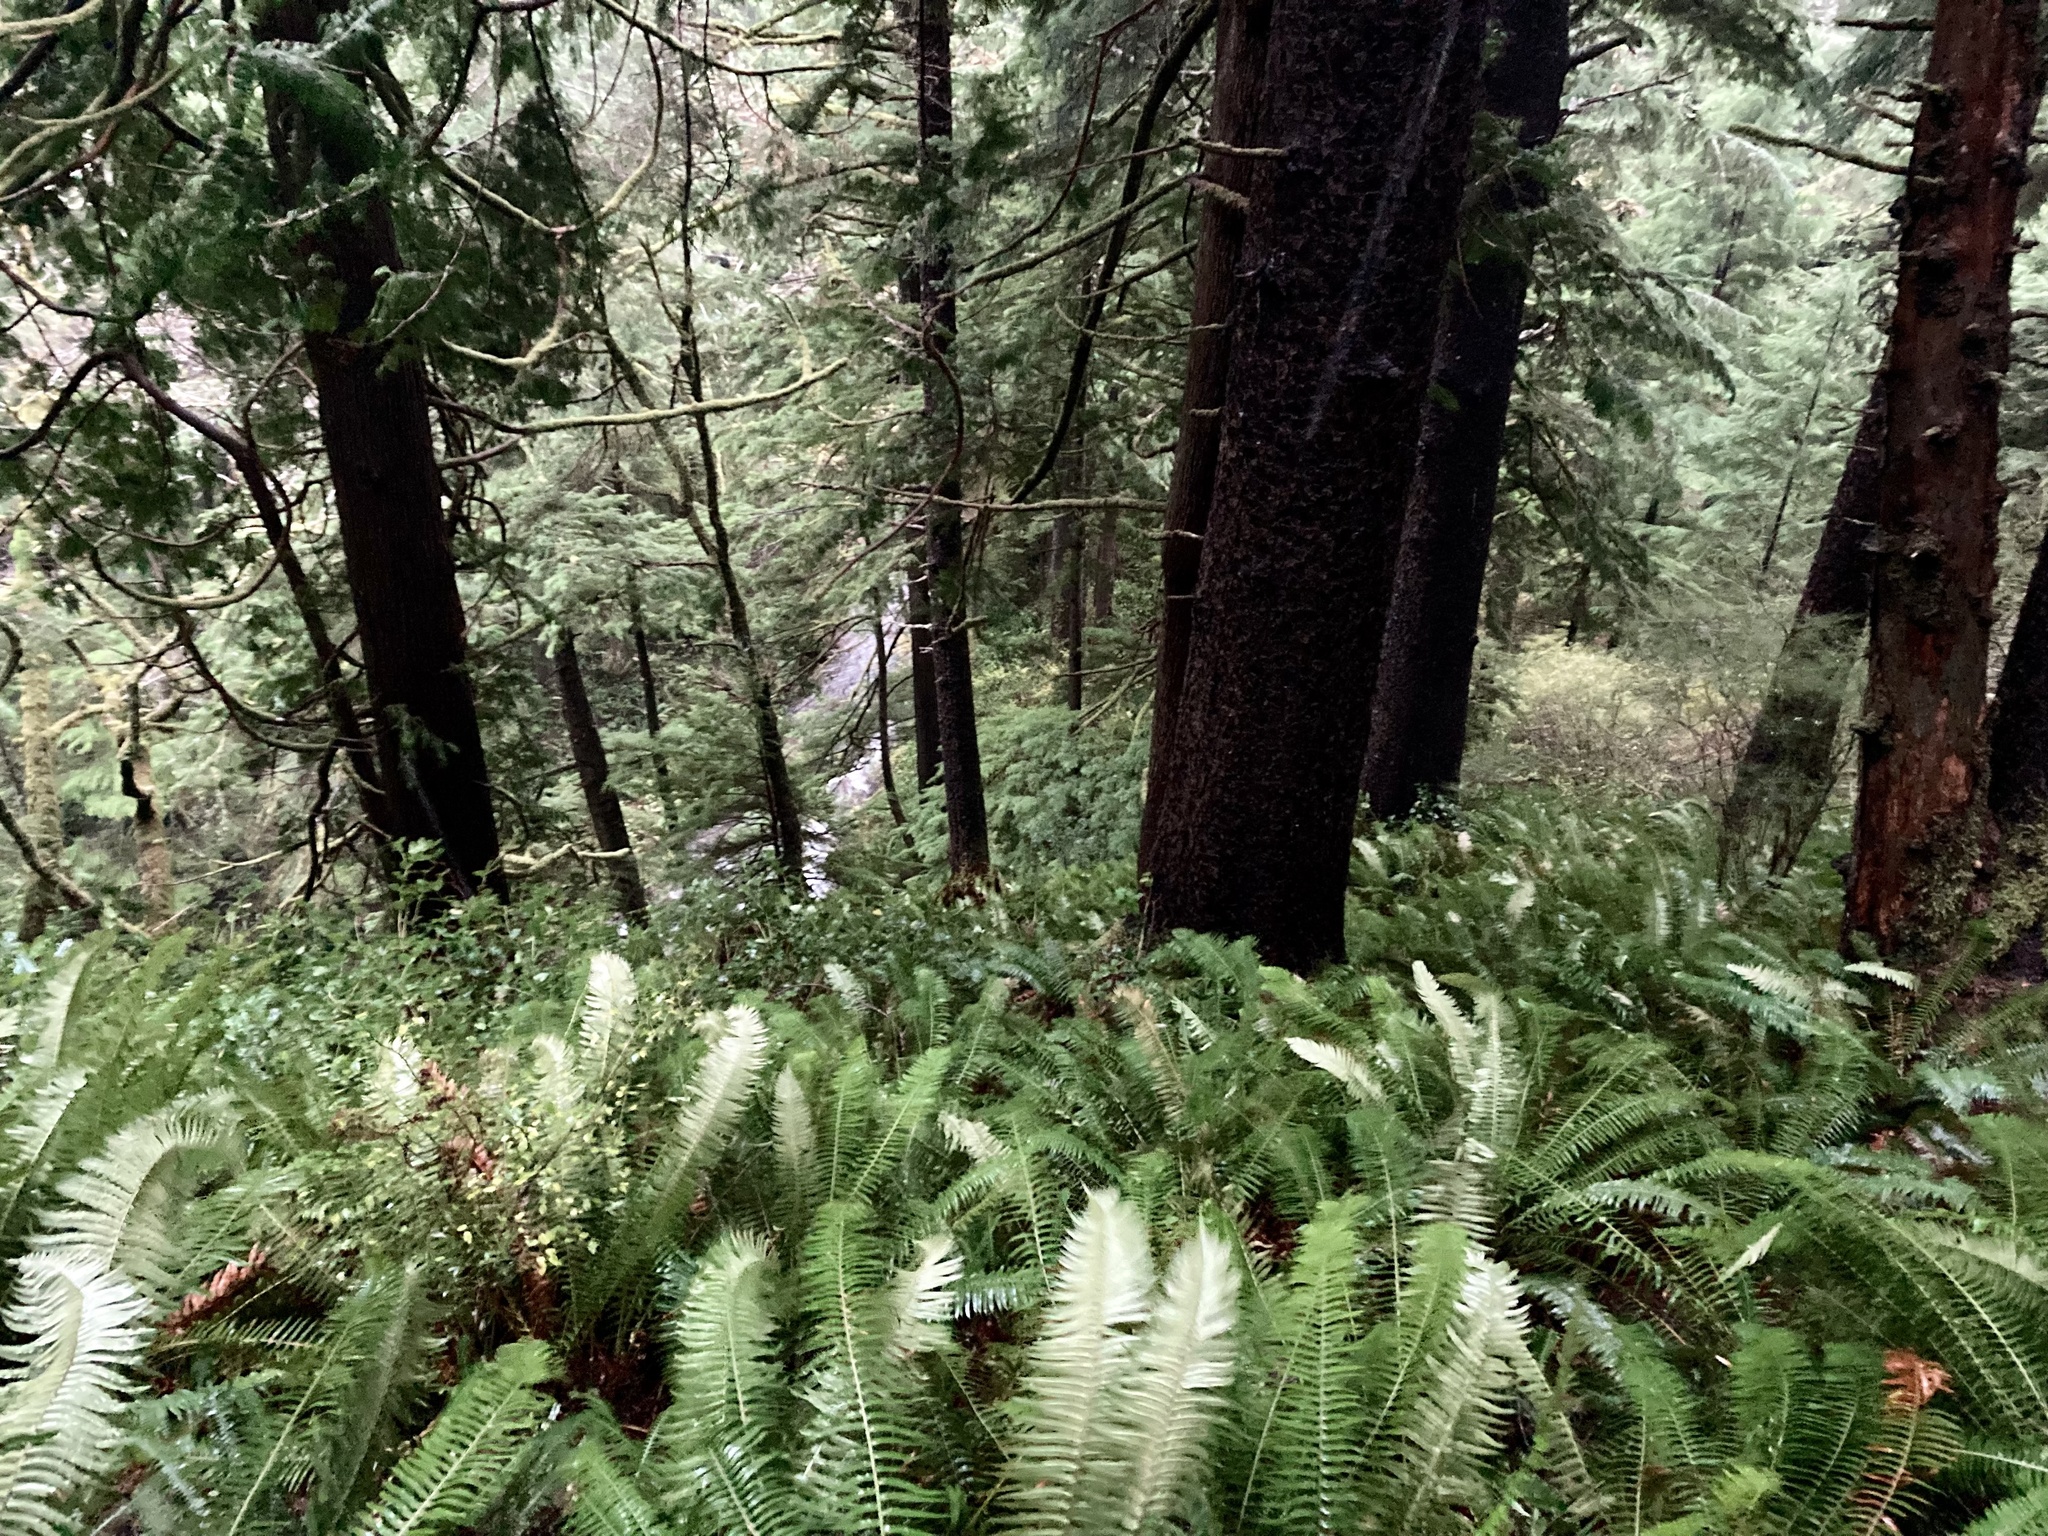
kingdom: Plantae
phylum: Tracheophyta
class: Polypodiopsida
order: Polypodiales
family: Dryopteridaceae
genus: Polystichum
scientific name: Polystichum munitum
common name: Western sword-fern
